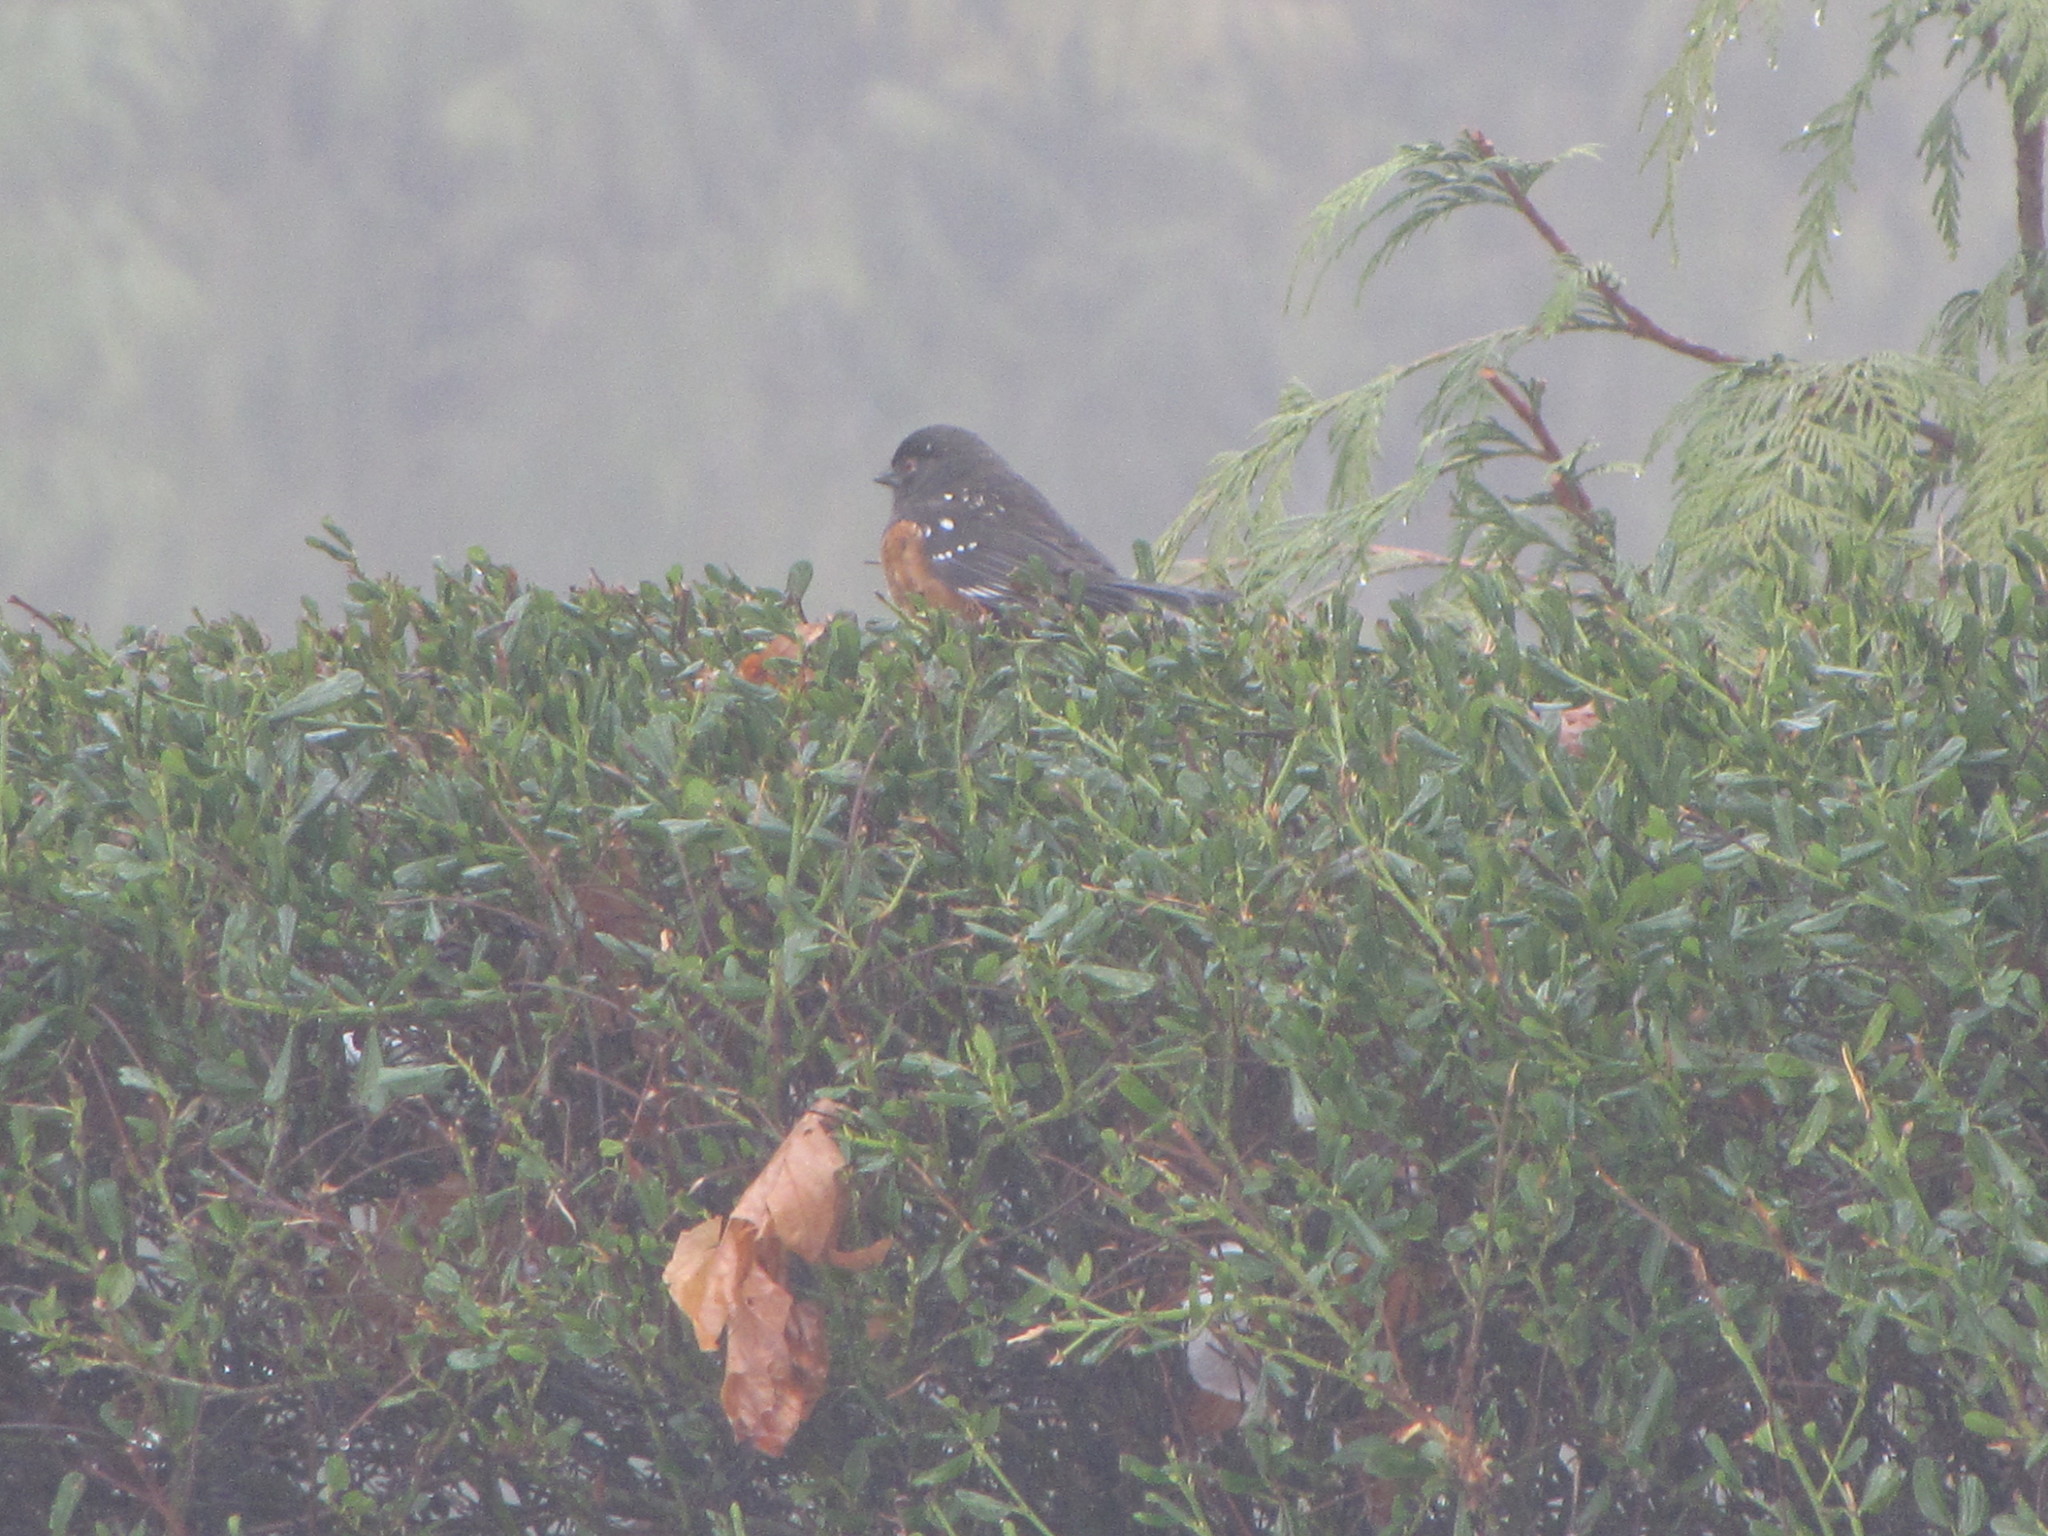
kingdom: Animalia
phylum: Chordata
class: Aves
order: Passeriformes
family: Passerellidae
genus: Pipilo
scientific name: Pipilo maculatus
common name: Spotted towhee
